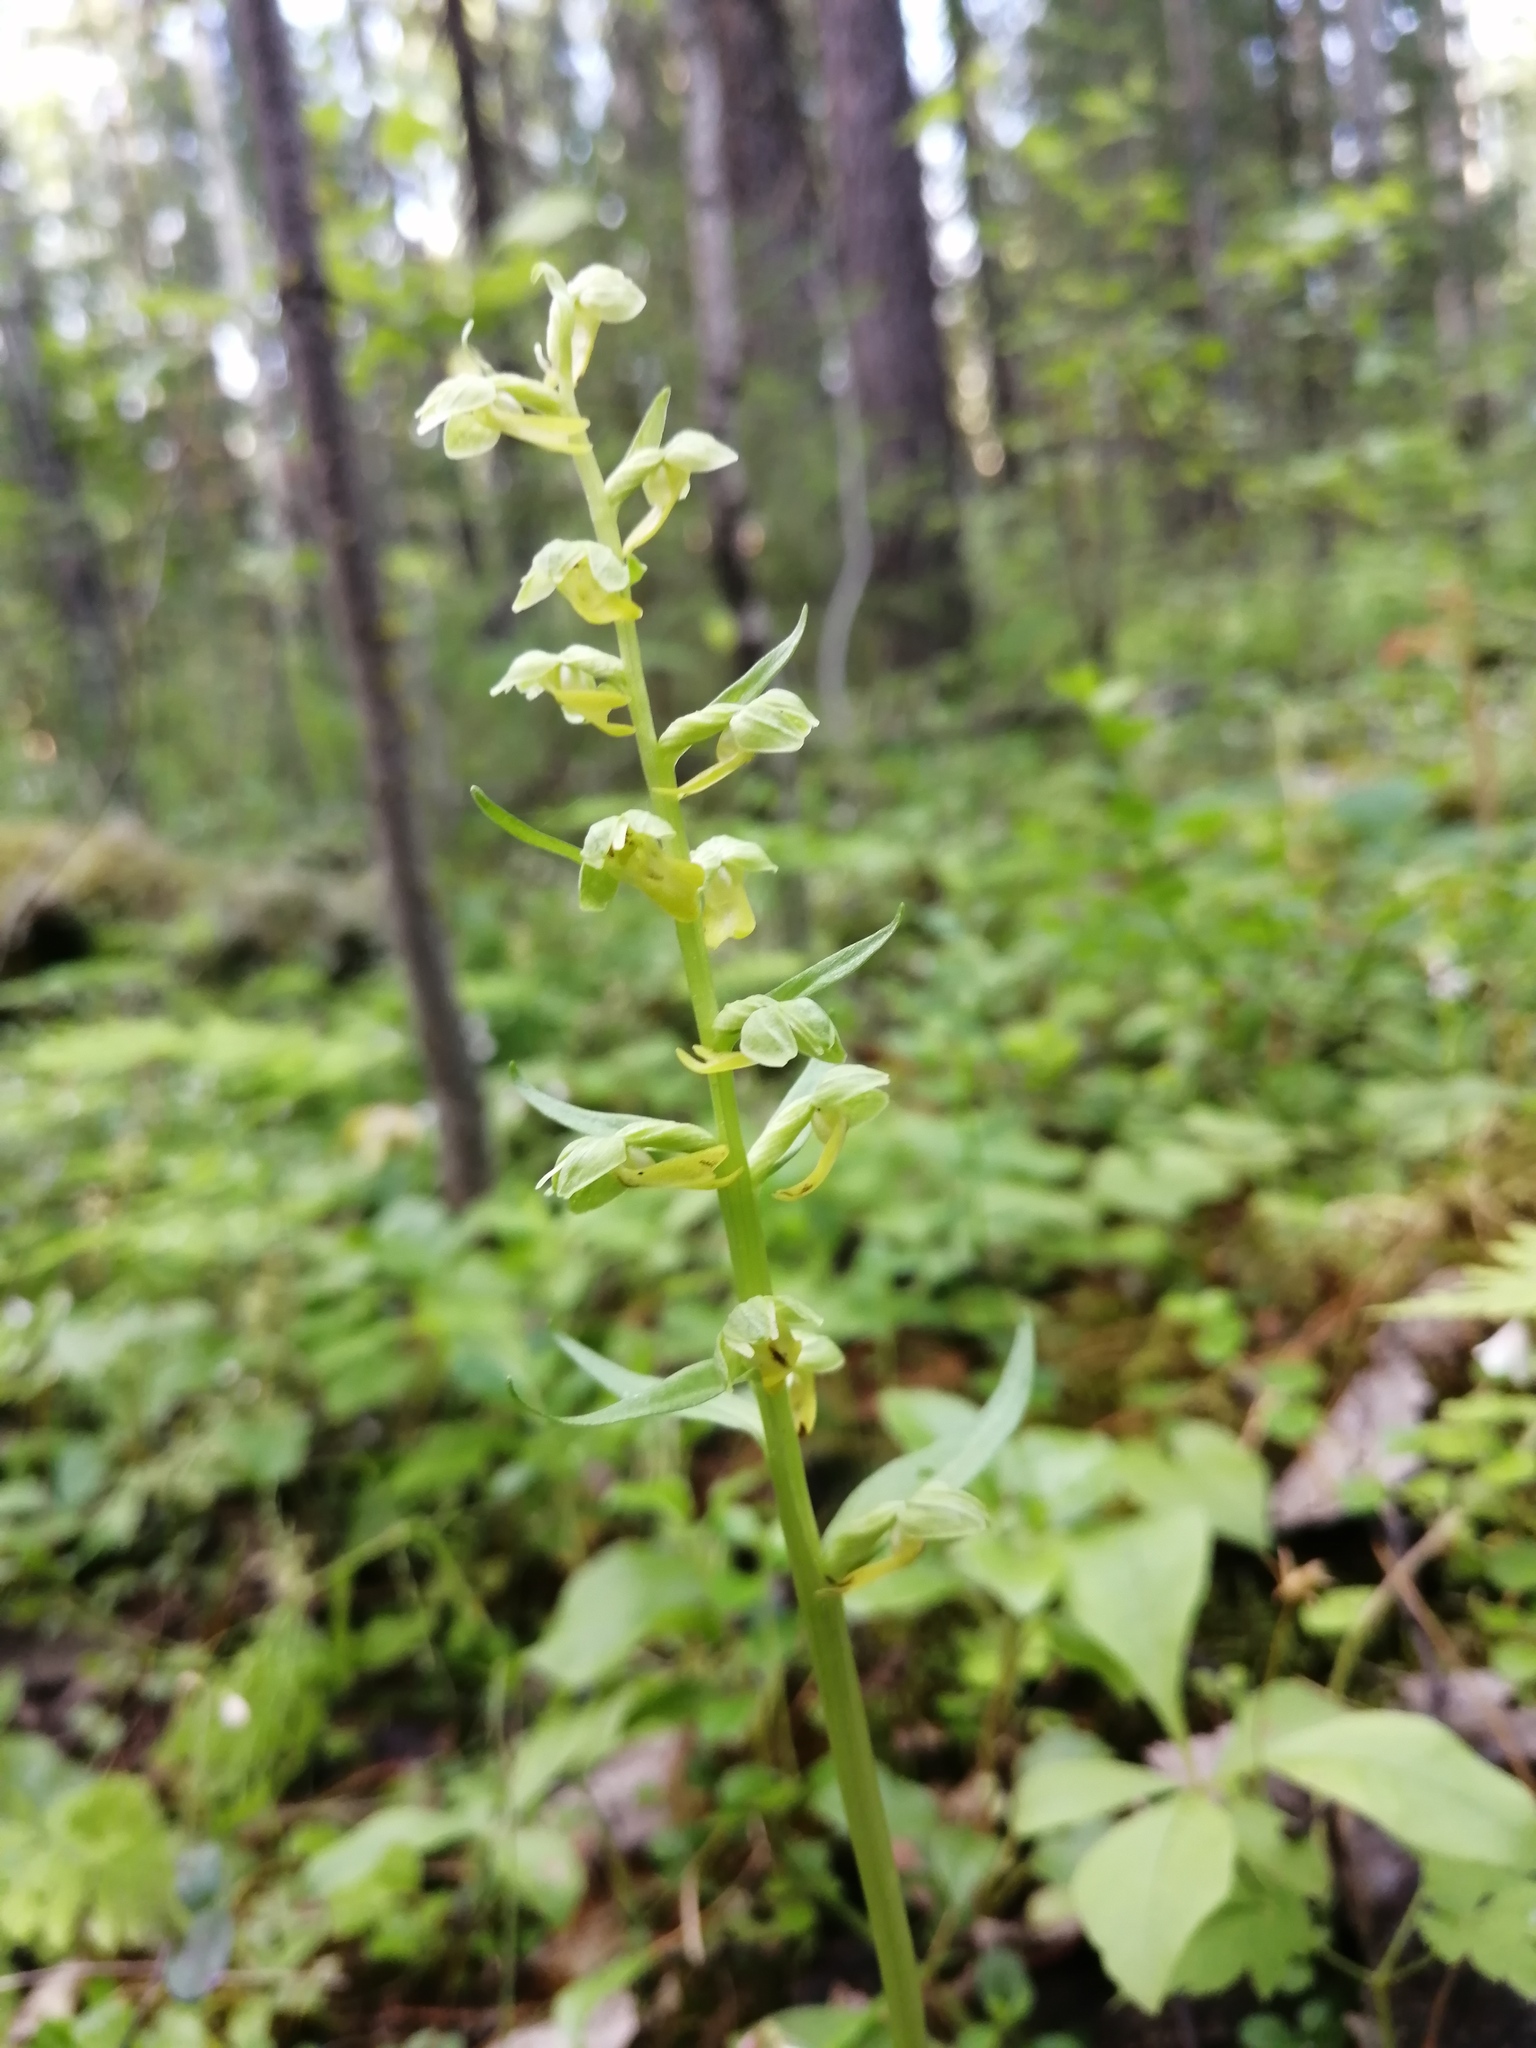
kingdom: Plantae
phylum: Tracheophyta
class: Liliopsida
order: Asparagales
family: Orchidaceae
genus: Dactylorhiza
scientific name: Dactylorhiza viridis
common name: Longbract frog orchid
